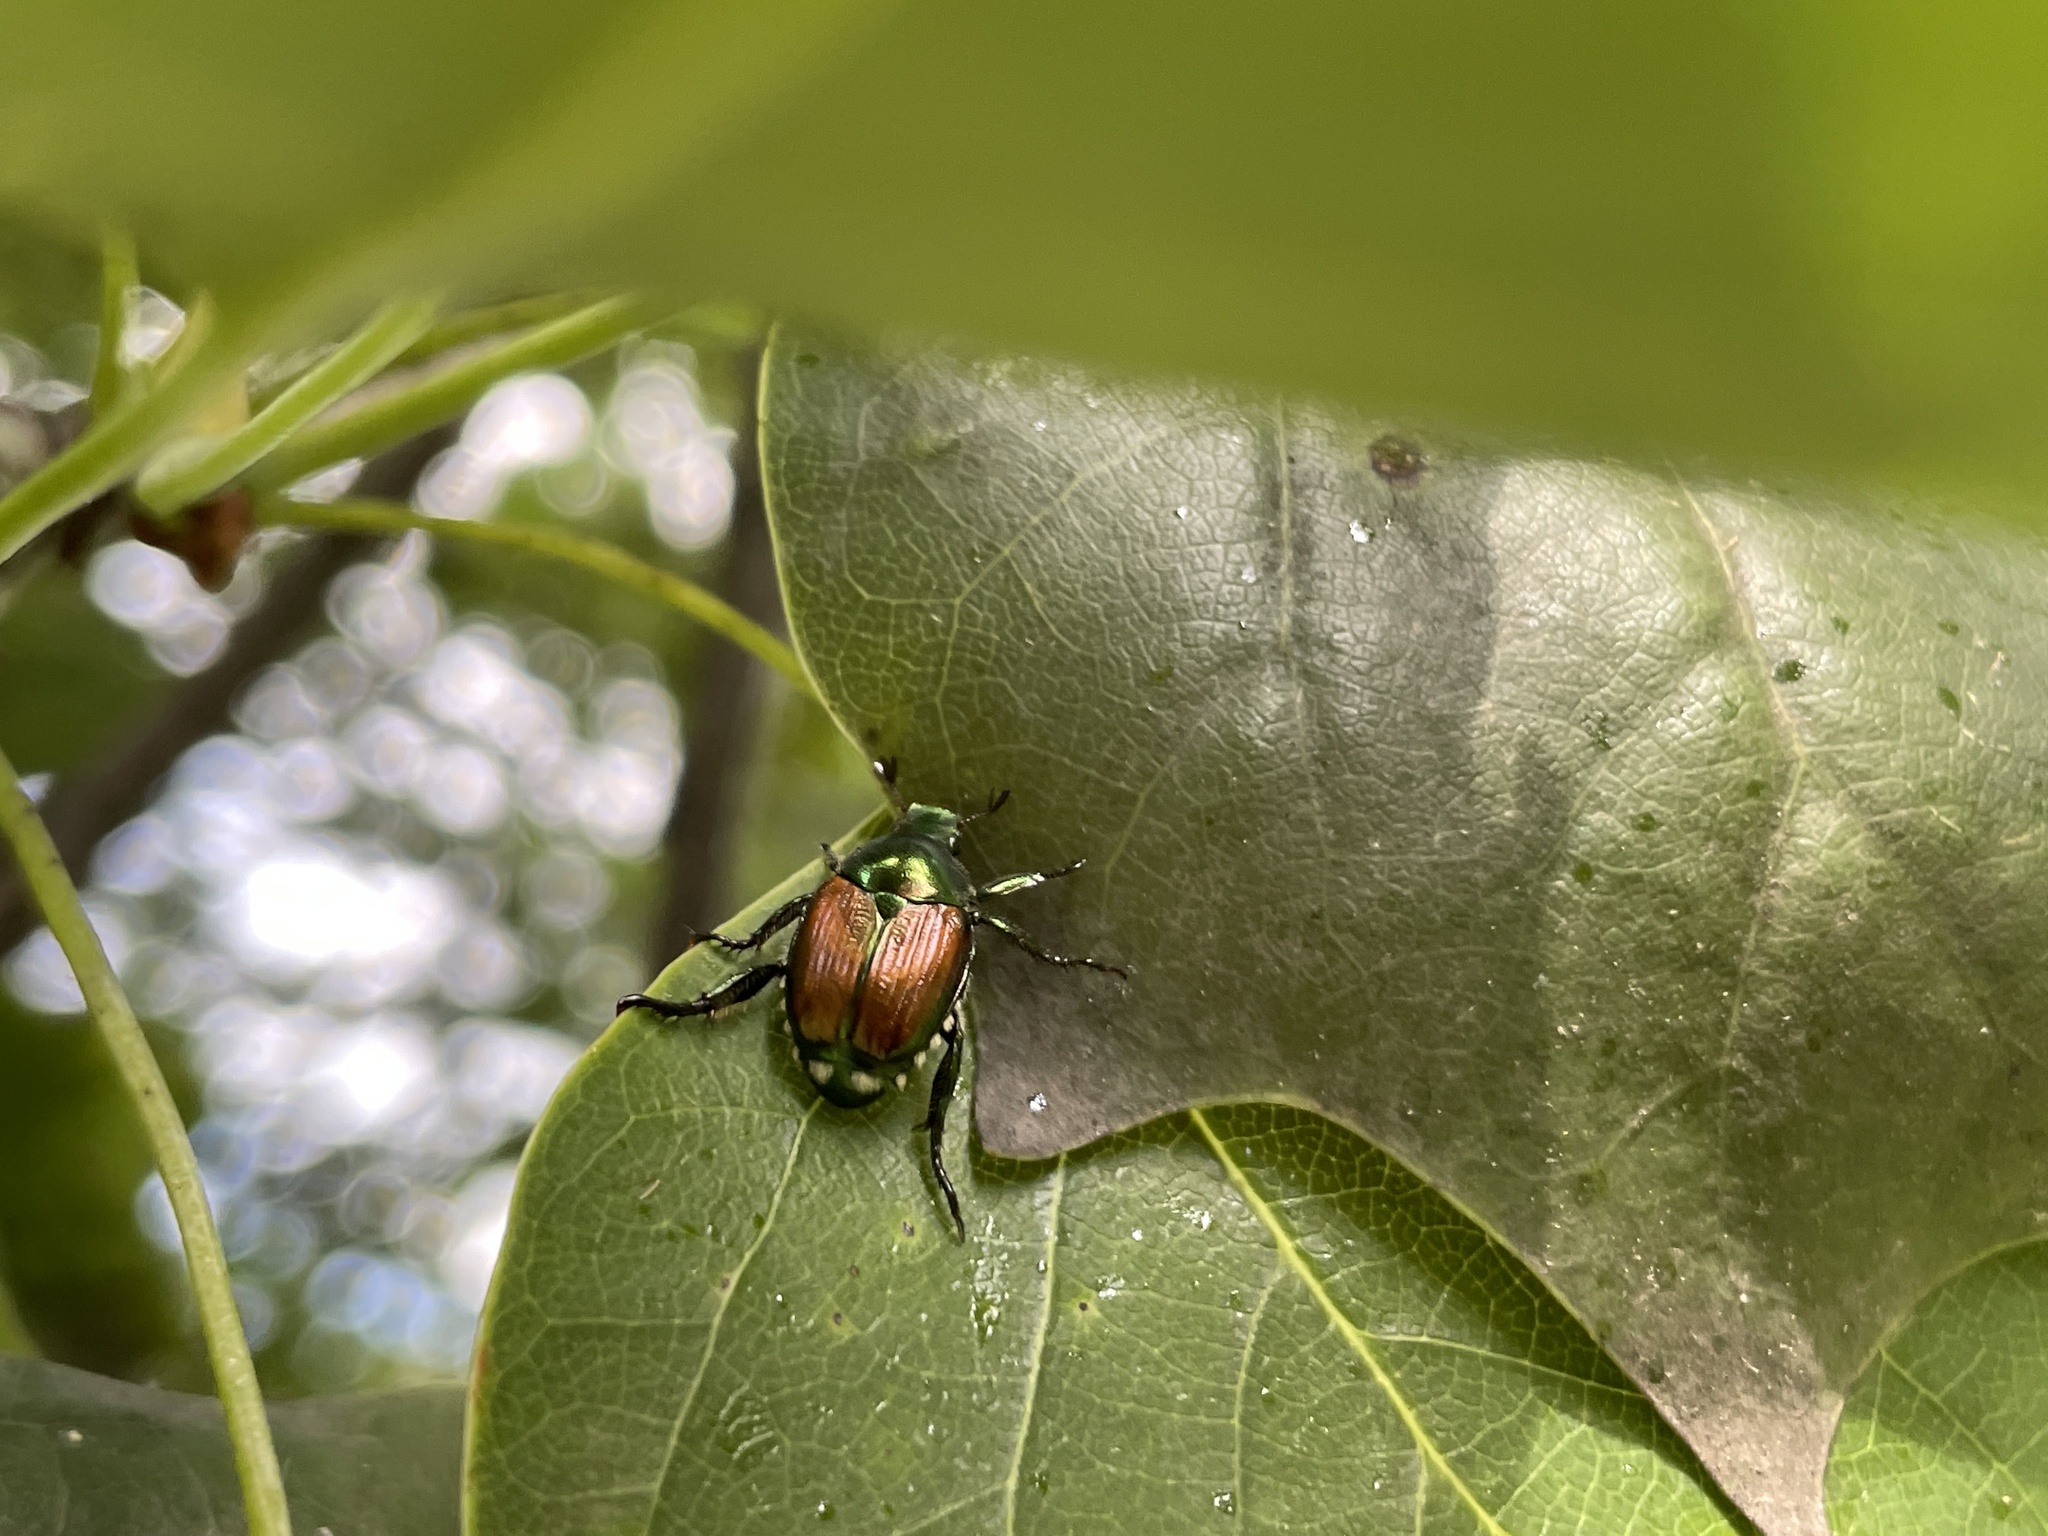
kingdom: Animalia
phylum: Arthropoda
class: Insecta
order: Coleoptera
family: Scarabaeidae
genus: Popillia
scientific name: Popillia japonica
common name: Japanese beetle
